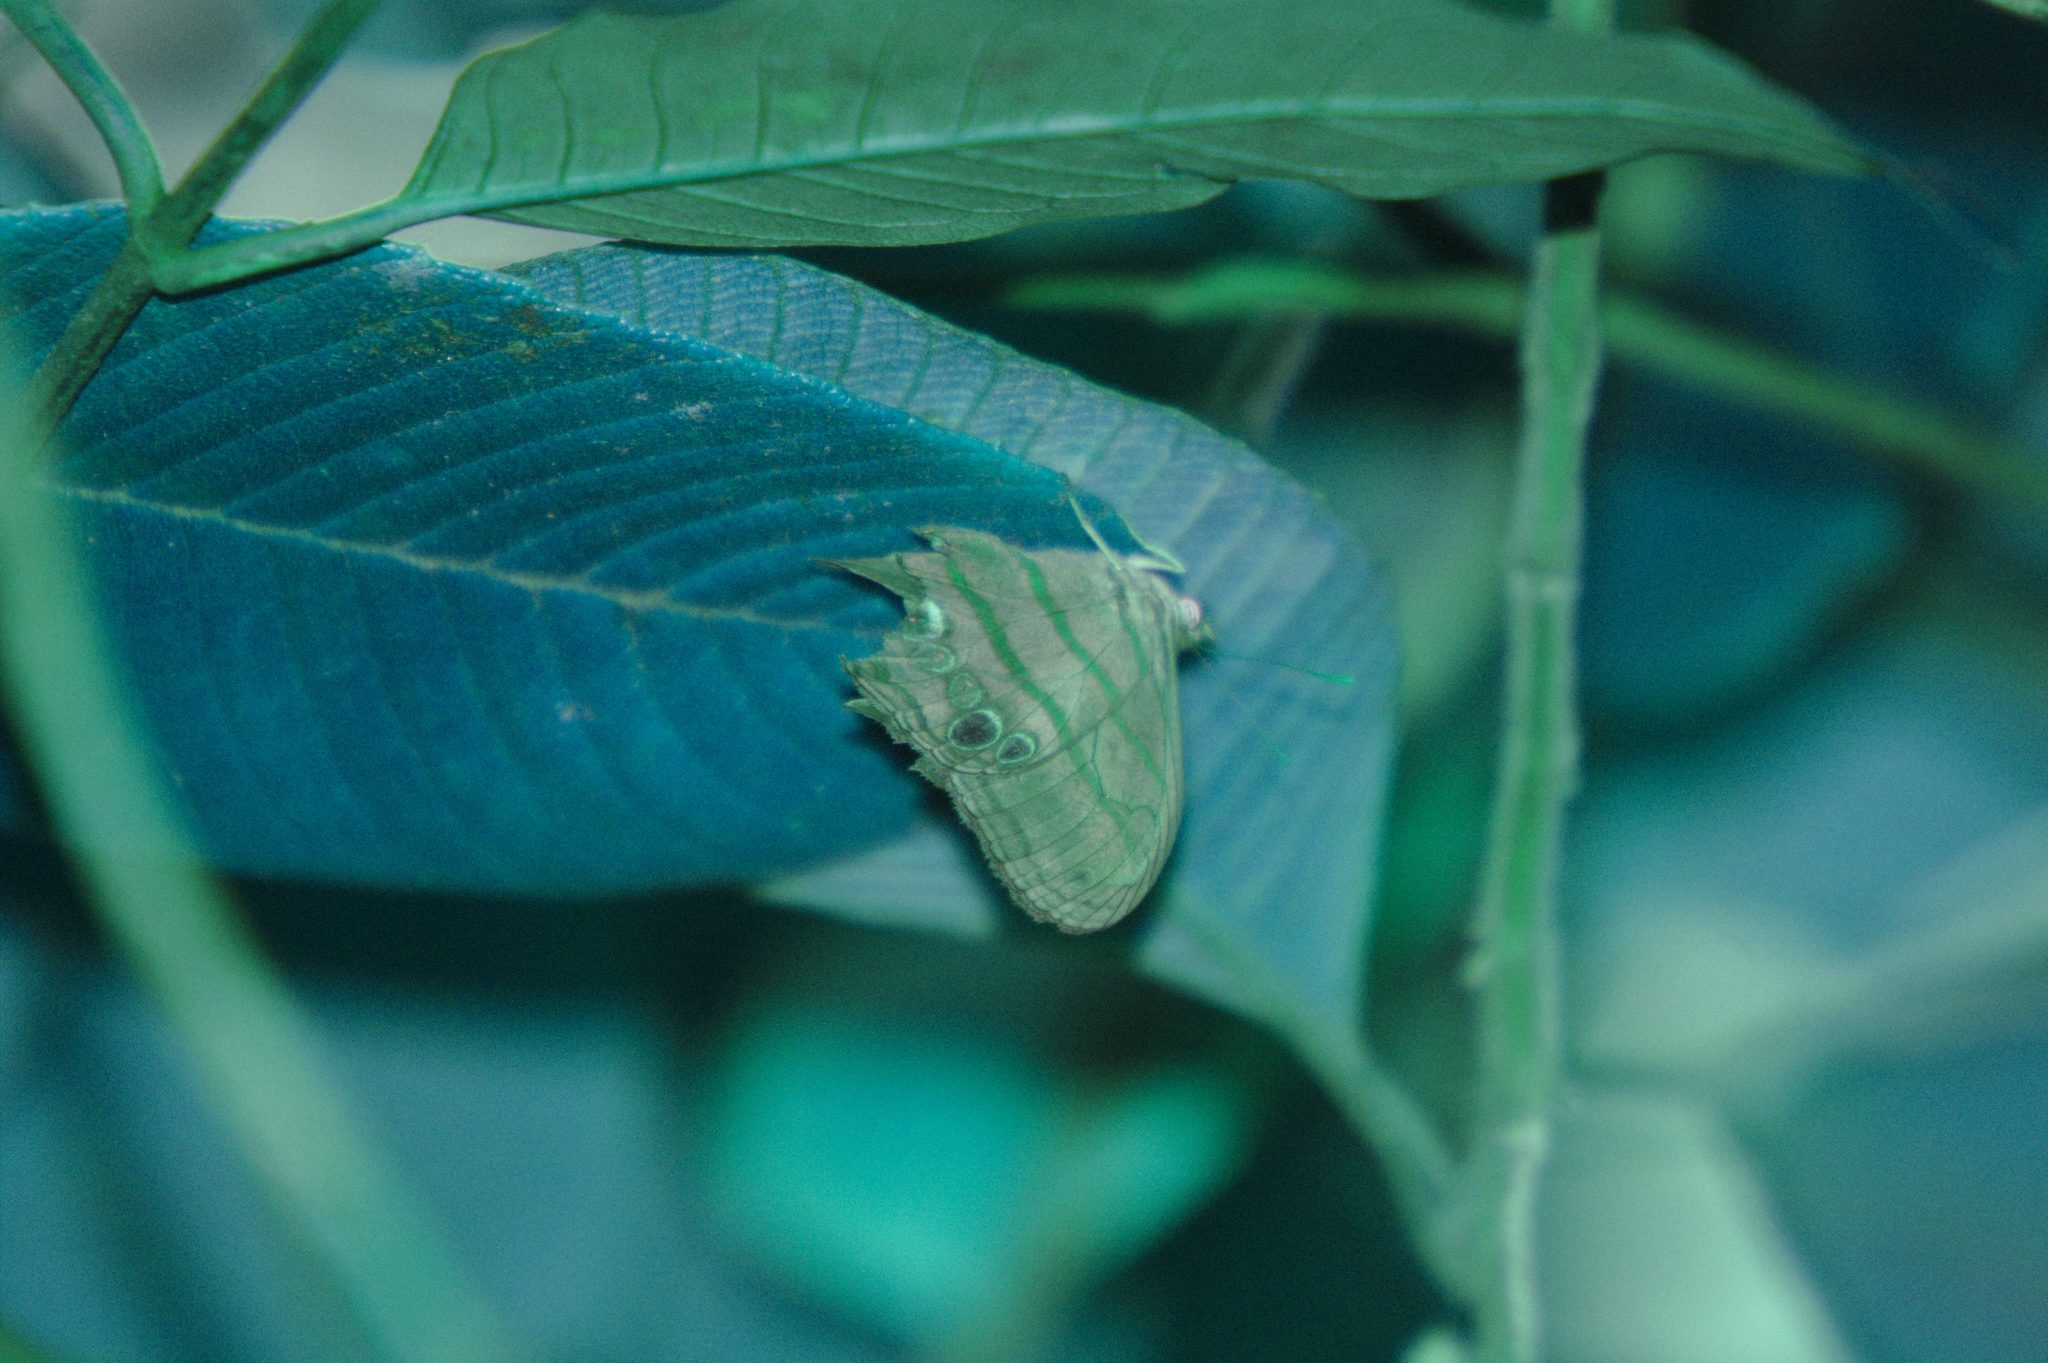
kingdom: Animalia
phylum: Arthropoda
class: Insecta
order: Lepidoptera
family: Nymphalidae
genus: Magneuptychia
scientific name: Magneuptychia libye
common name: Blue-gray satyr
